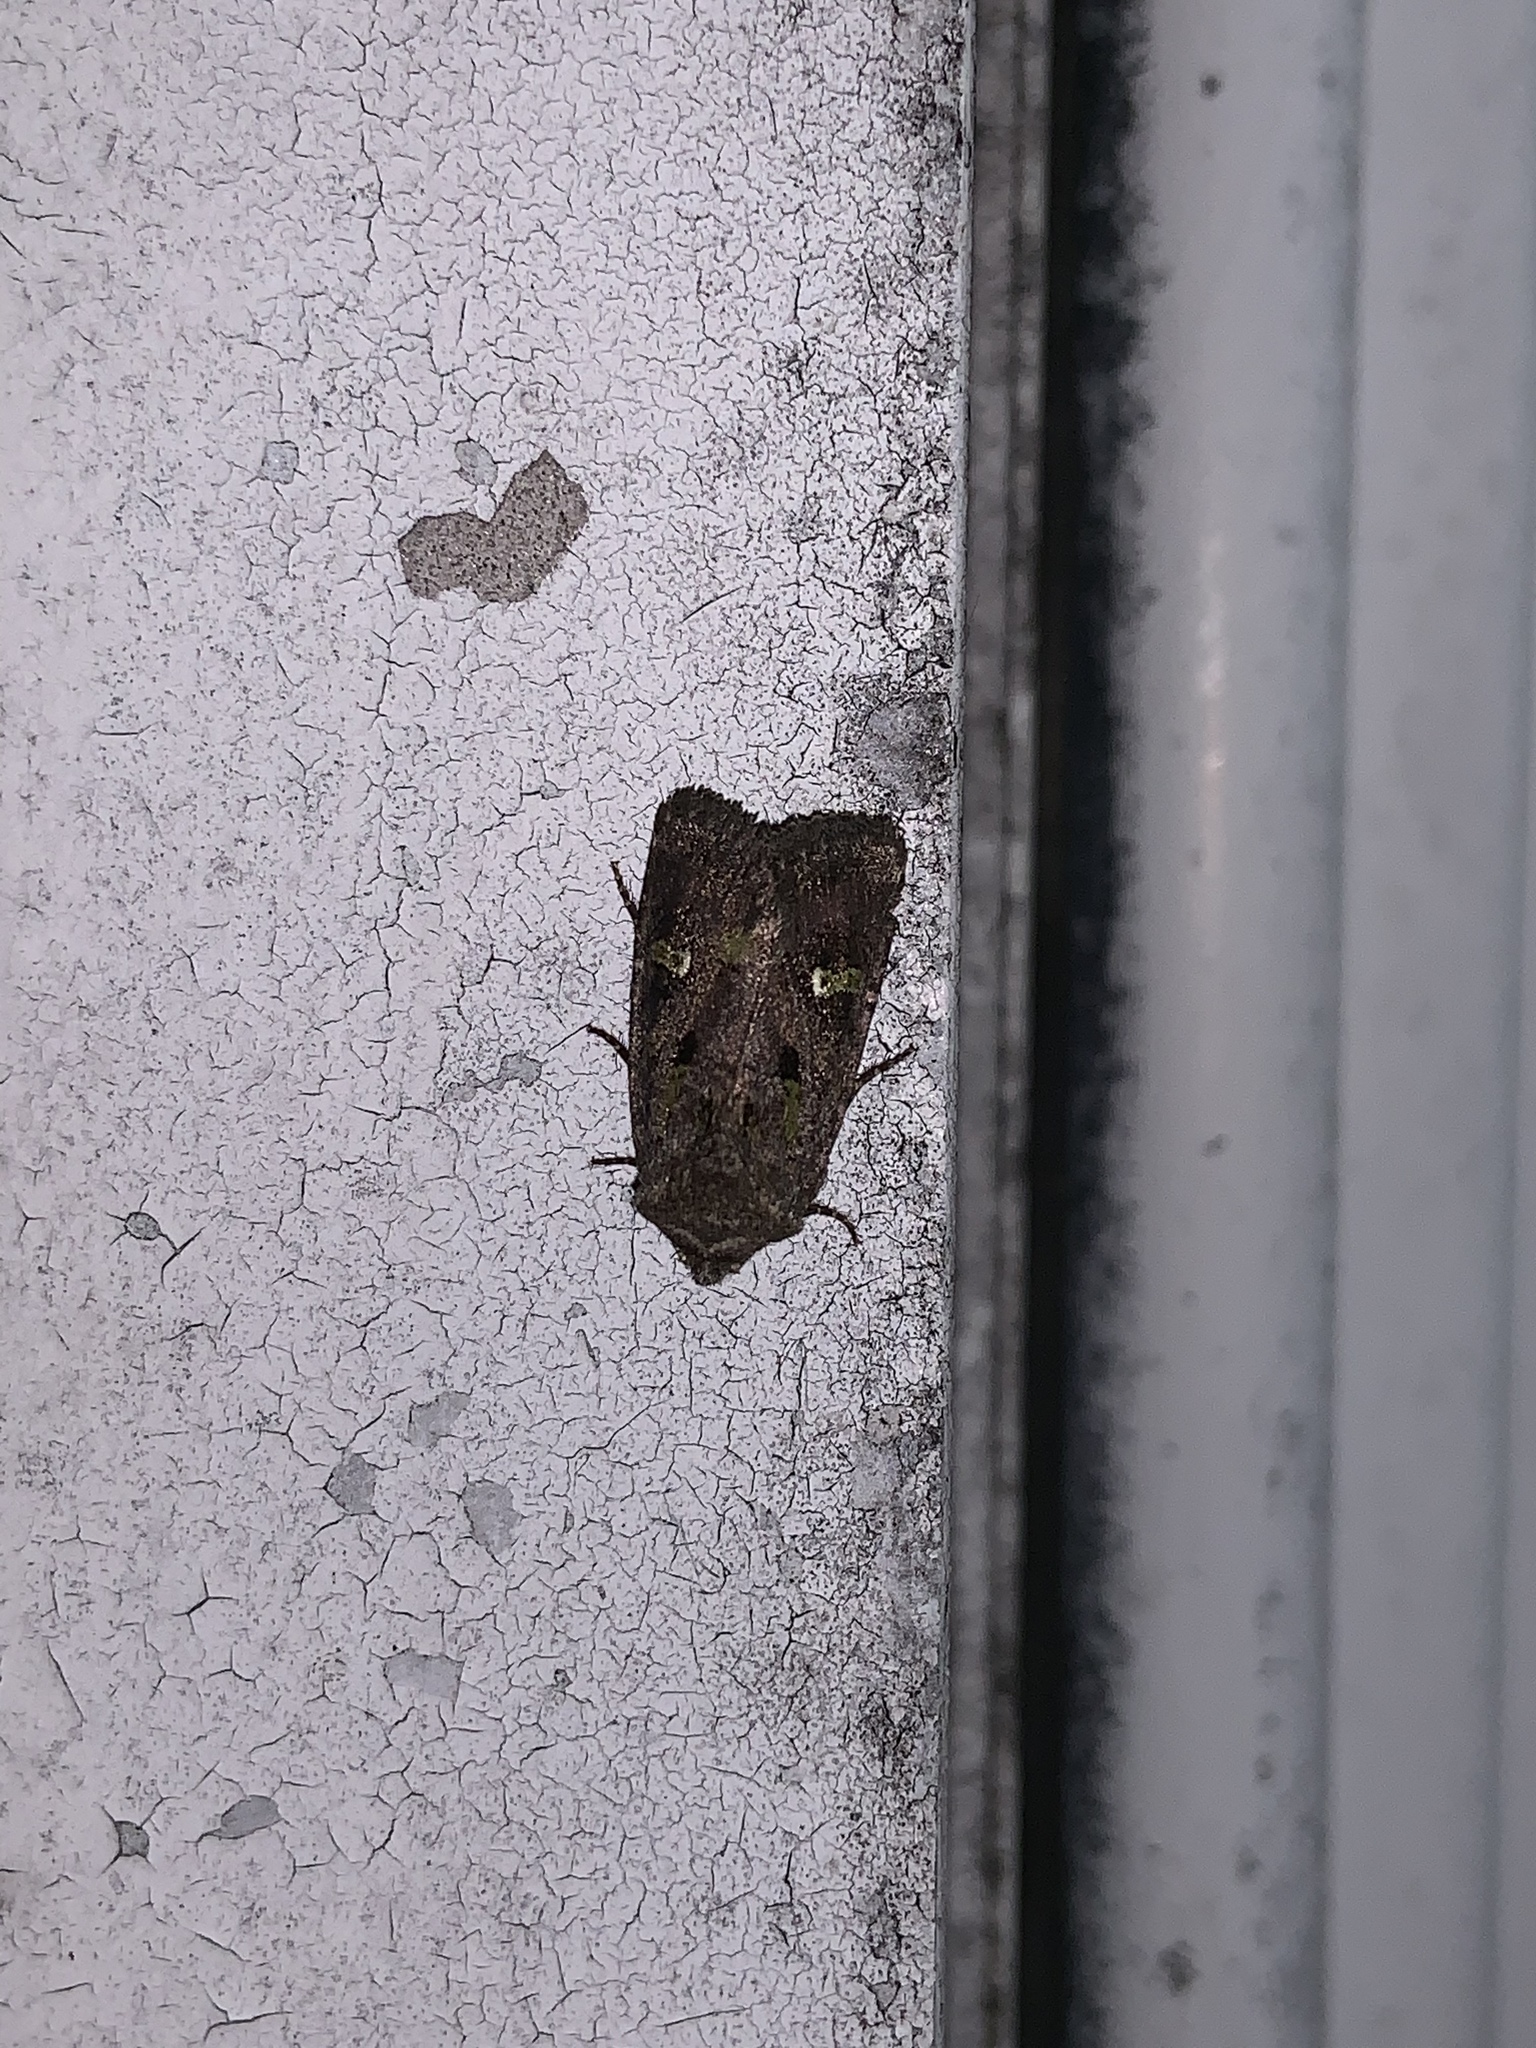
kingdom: Animalia
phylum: Arthropoda
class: Insecta
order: Lepidoptera
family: Noctuidae
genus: Lacinipolia
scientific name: Lacinipolia renigera
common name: Kidney-spotted minor
